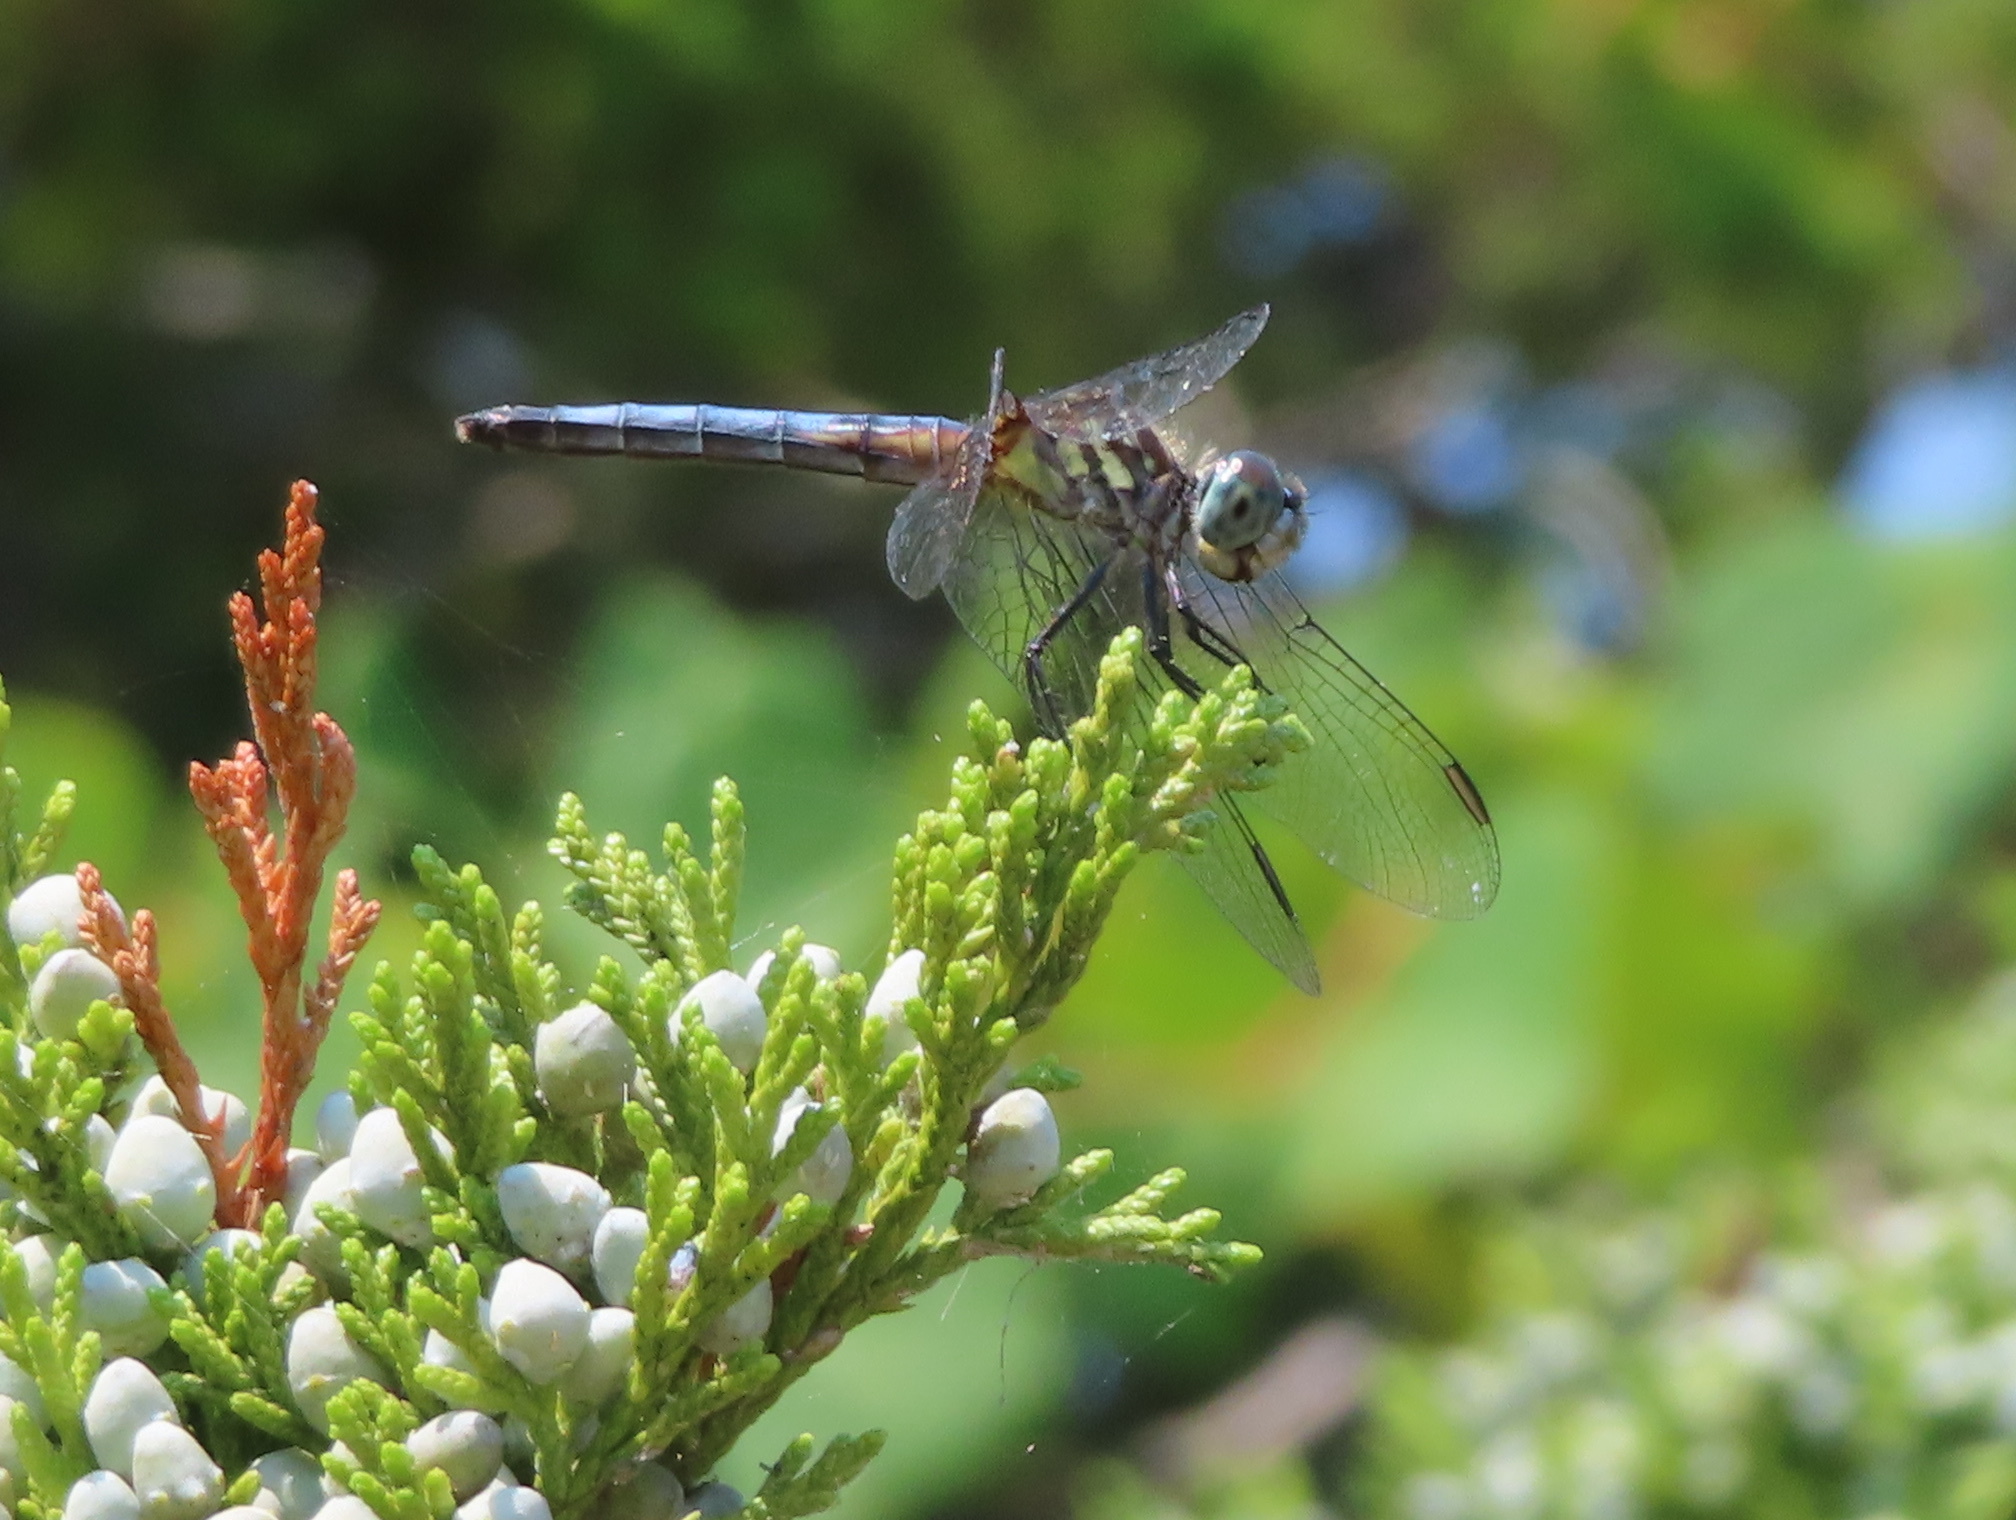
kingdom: Animalia
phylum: Arthropoda
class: Insecta
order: Odonata
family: Libellulidae
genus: Pachydiplax
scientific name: Pachydiplax longipennis
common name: Blue dasher
